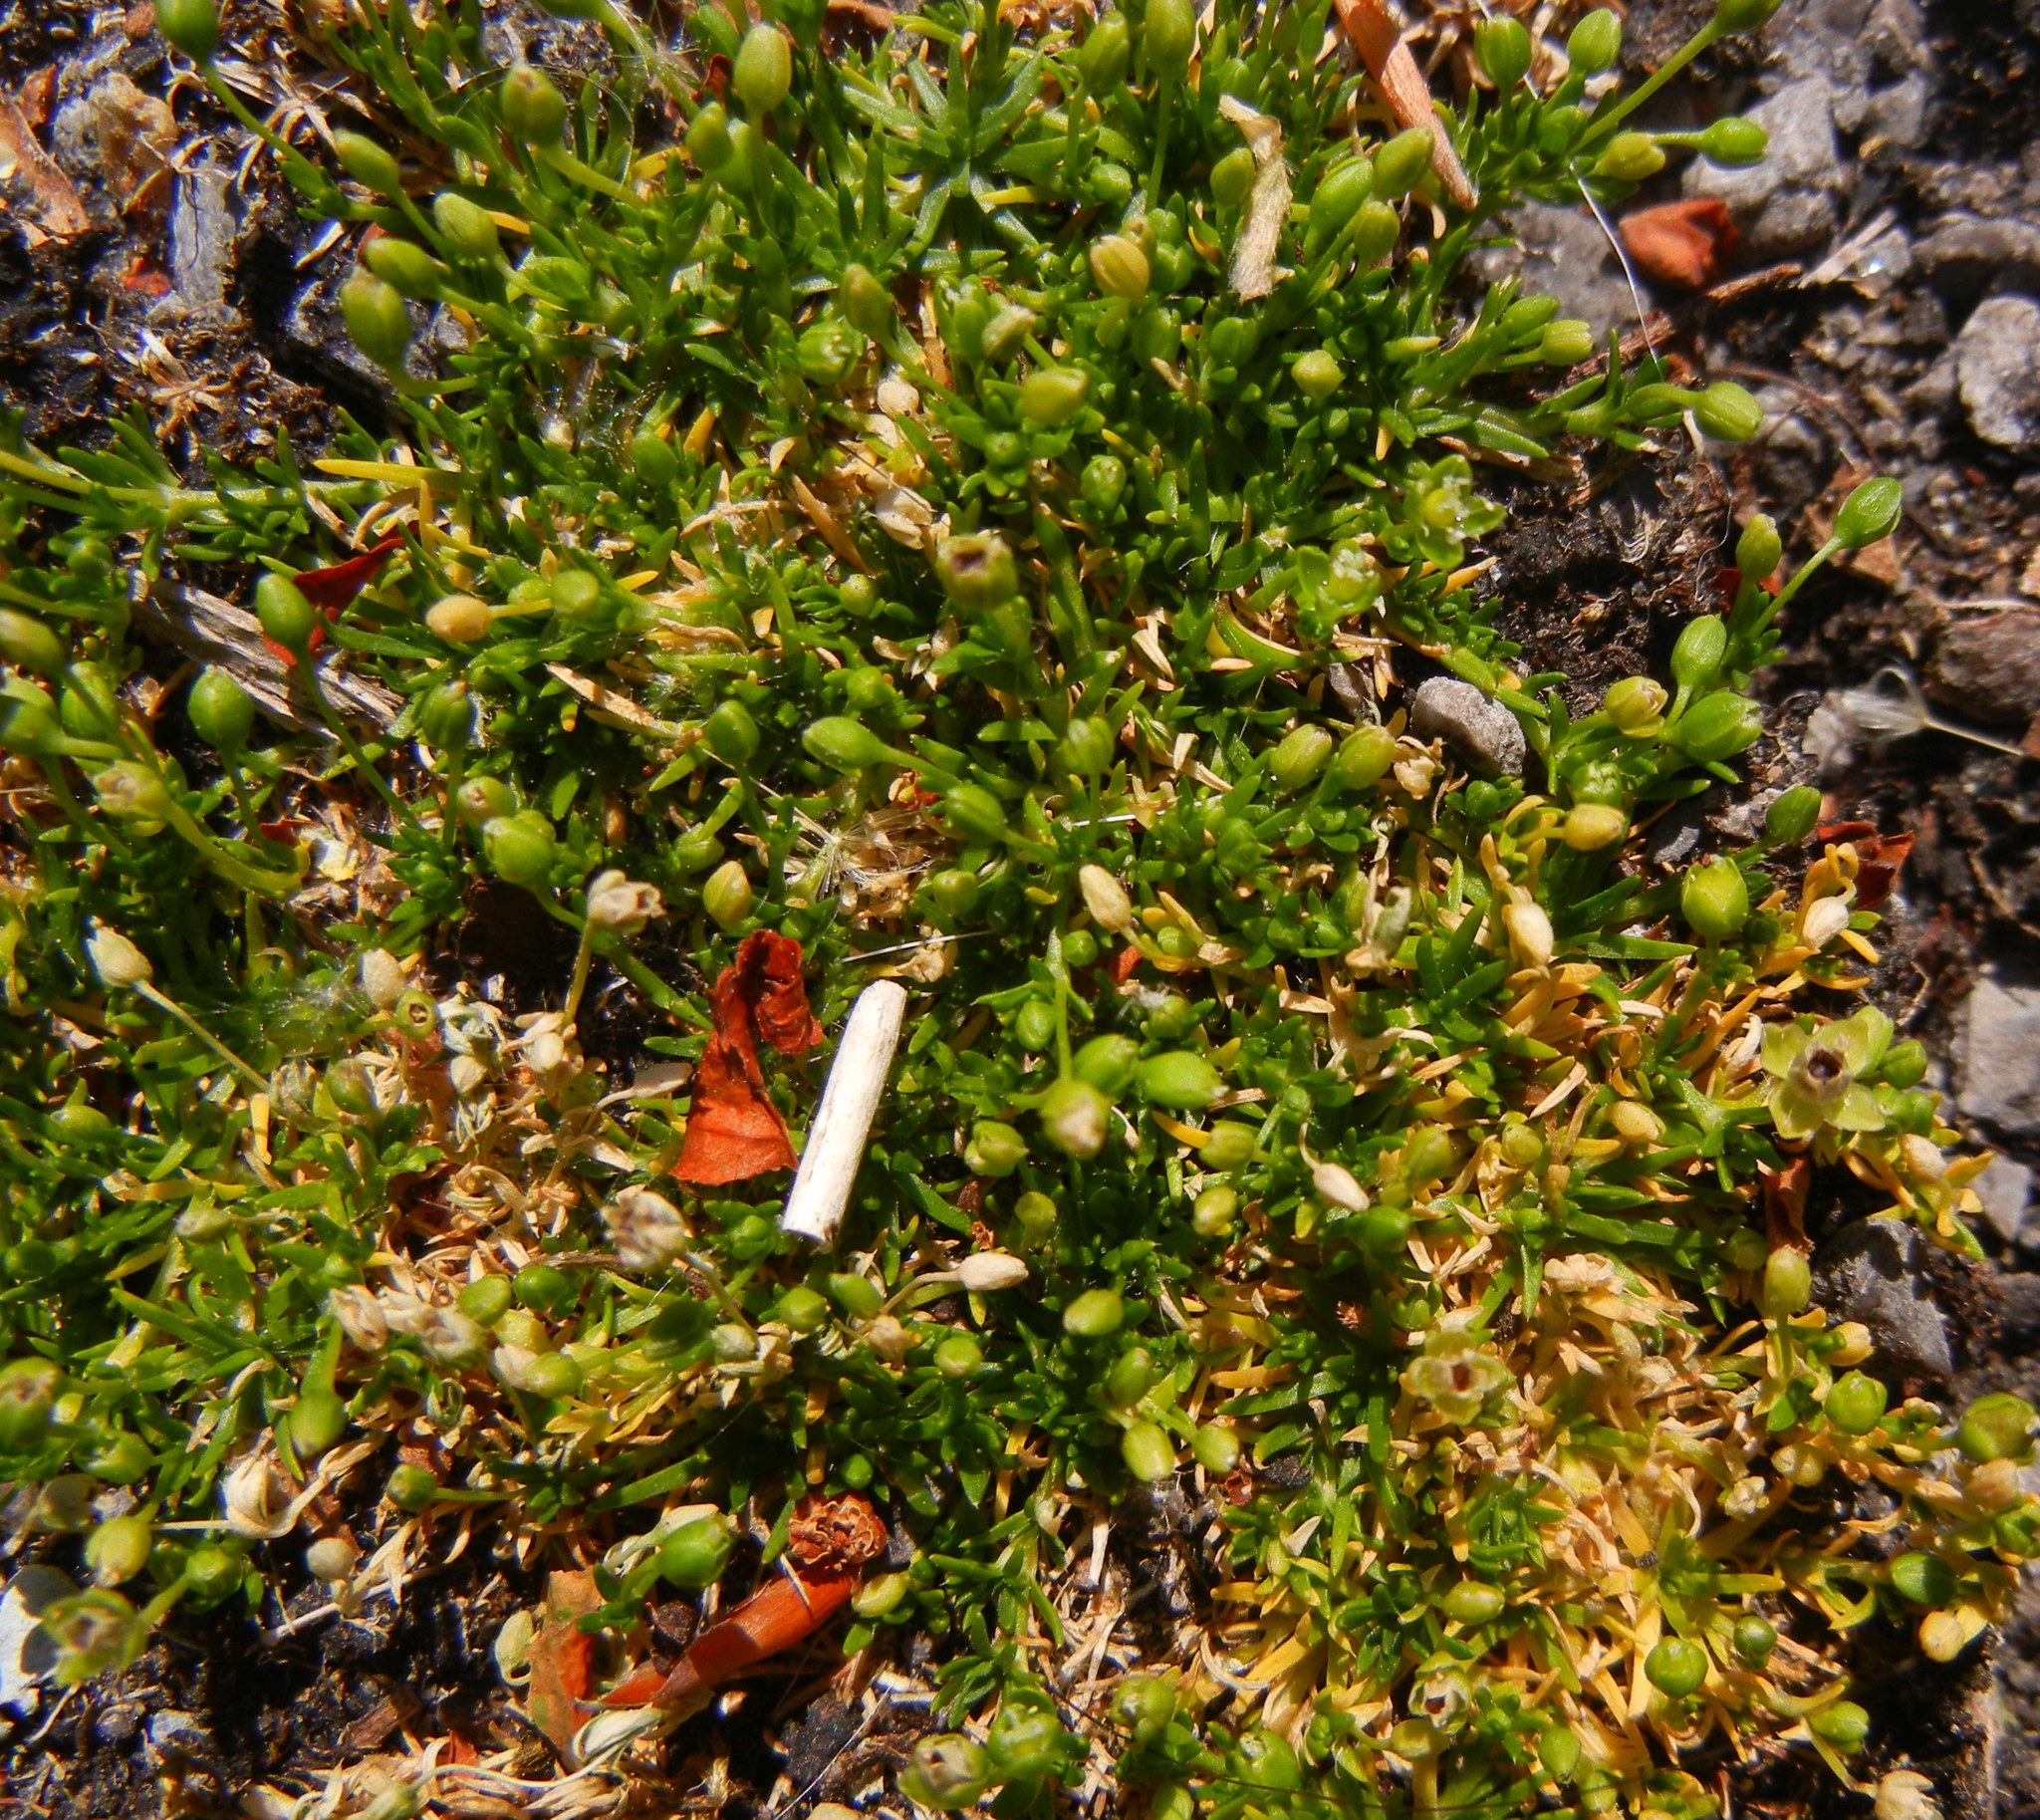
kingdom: Plantae
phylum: Tracheophyta
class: Magnoliopsida
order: Caryophyllales
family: Caryophyllaceae
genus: Sagina
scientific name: Sagina procumbens
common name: Procumbent pearlwort
